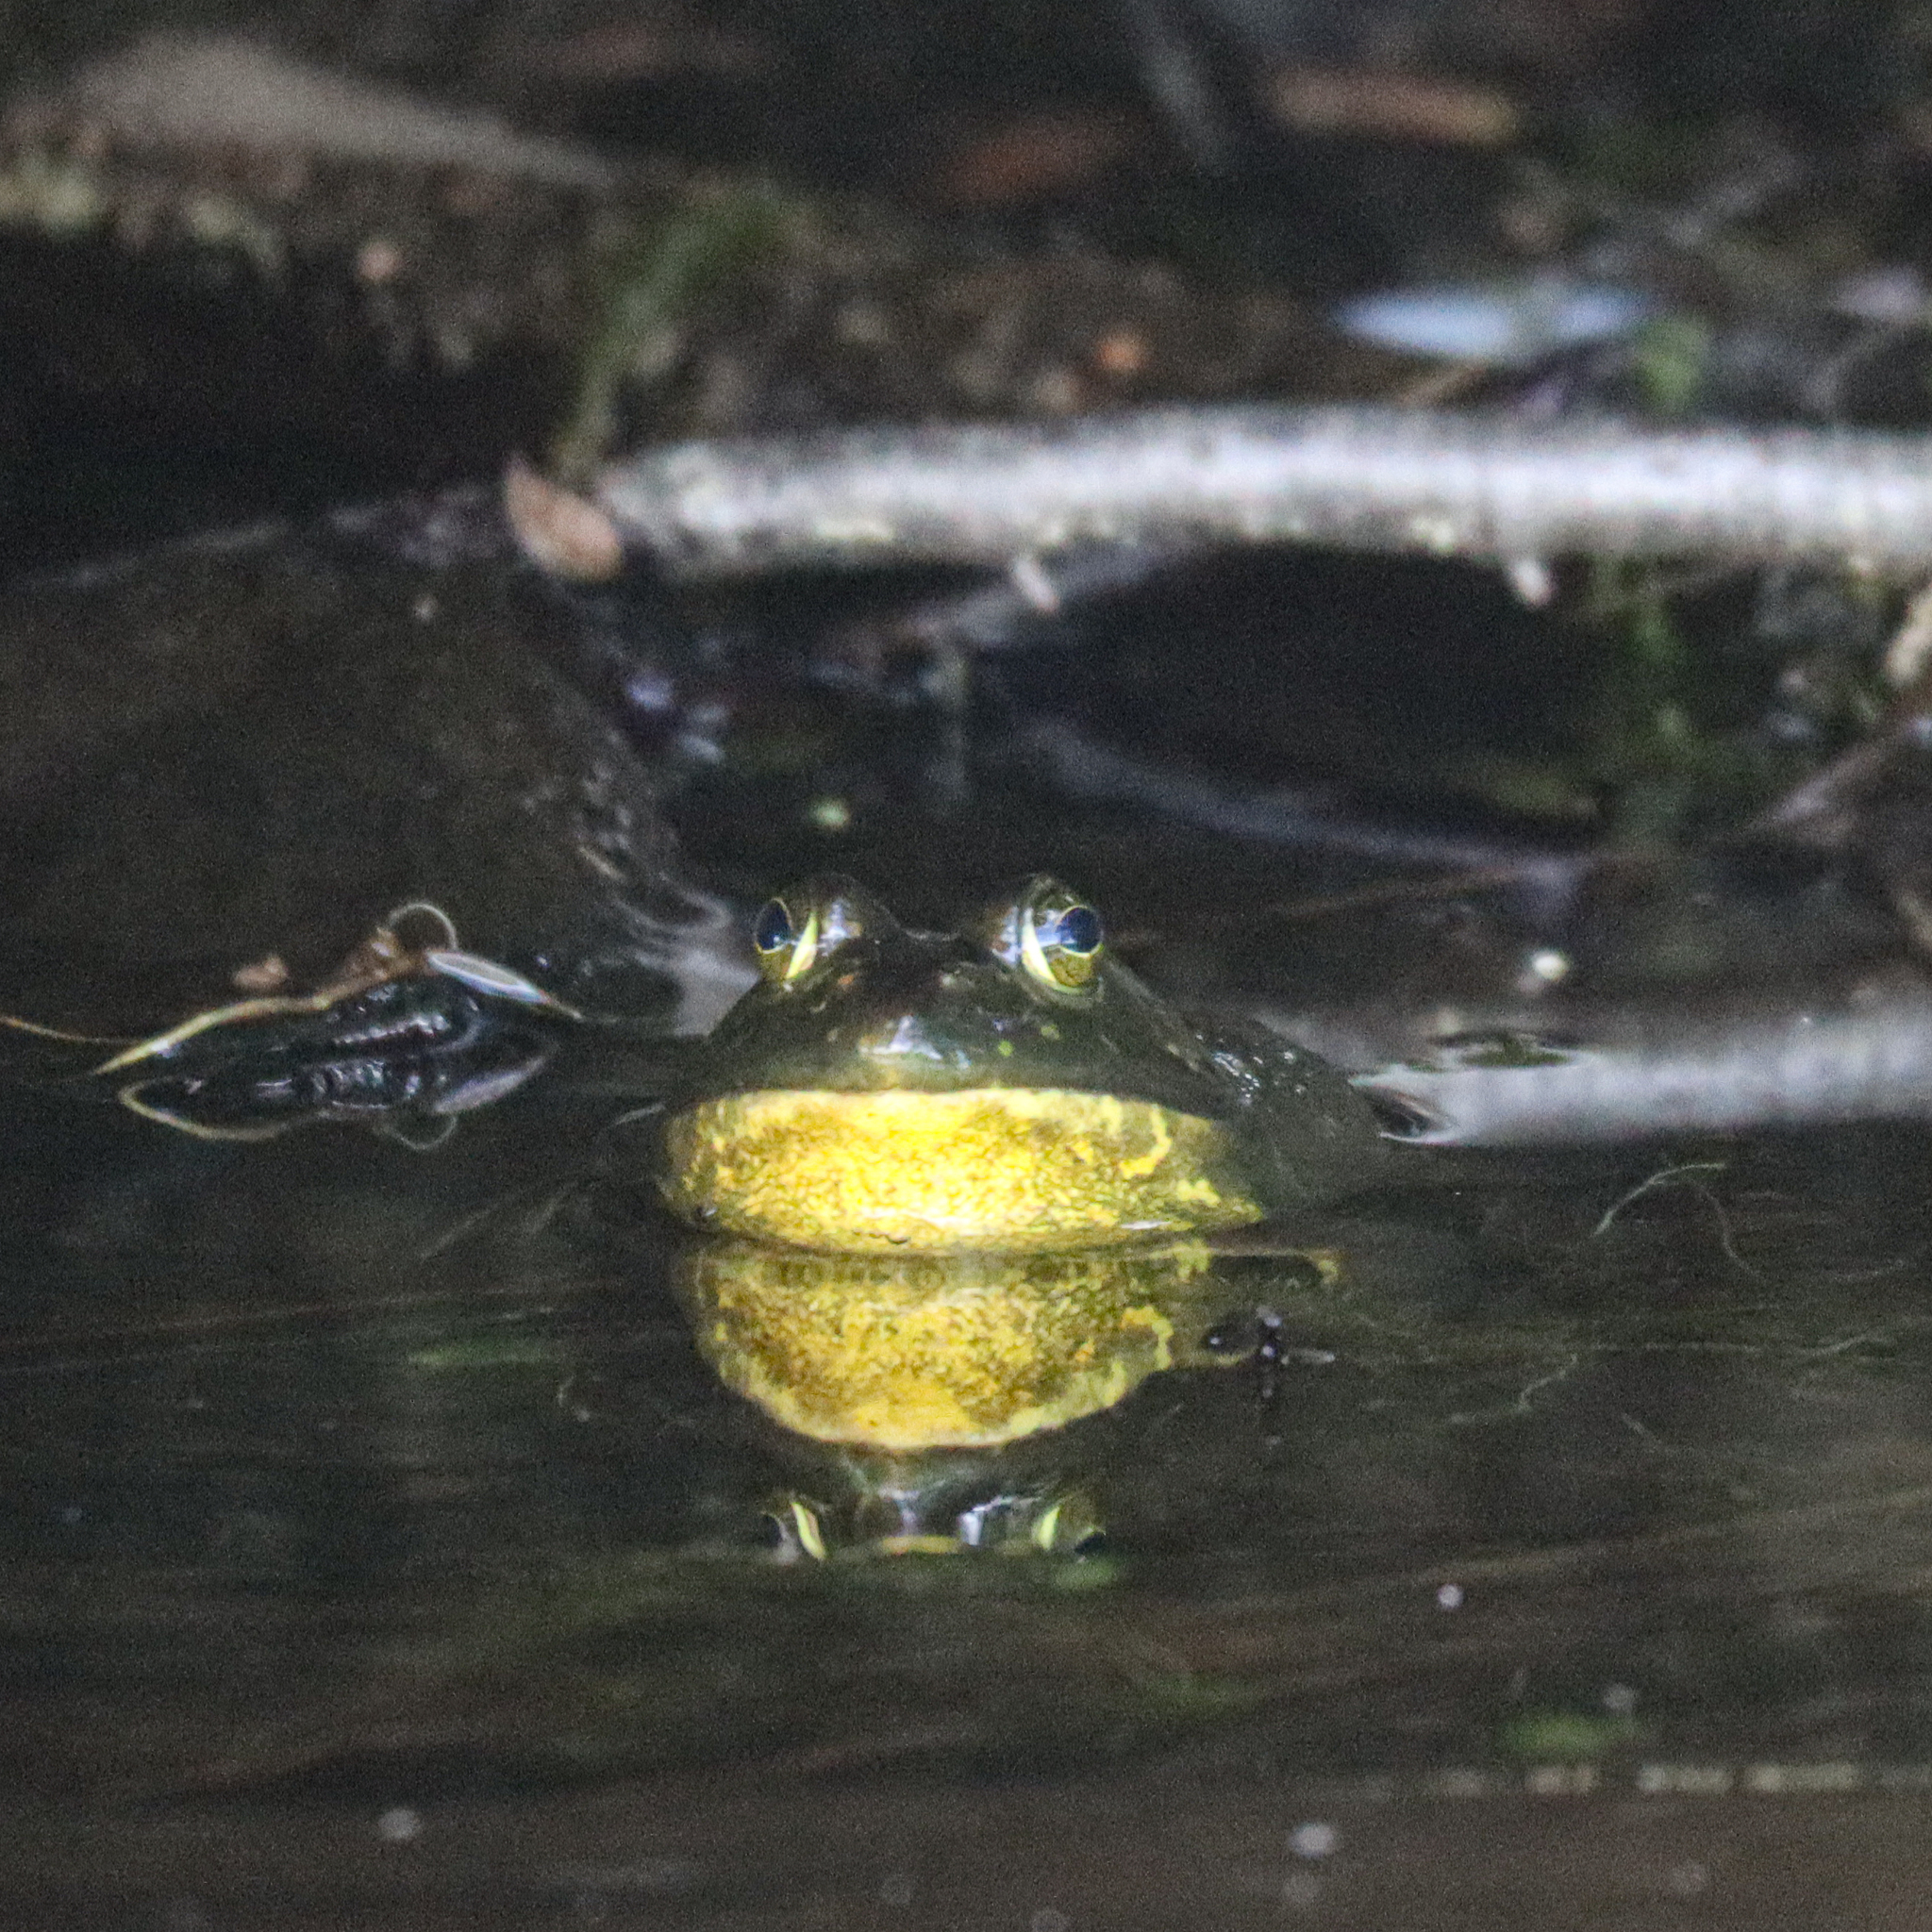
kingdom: Animalia
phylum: Chordata
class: Amphibia
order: Anura
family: Ranidae
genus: Lithobates
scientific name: Lithobates catesbeianus
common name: American bullfrog
